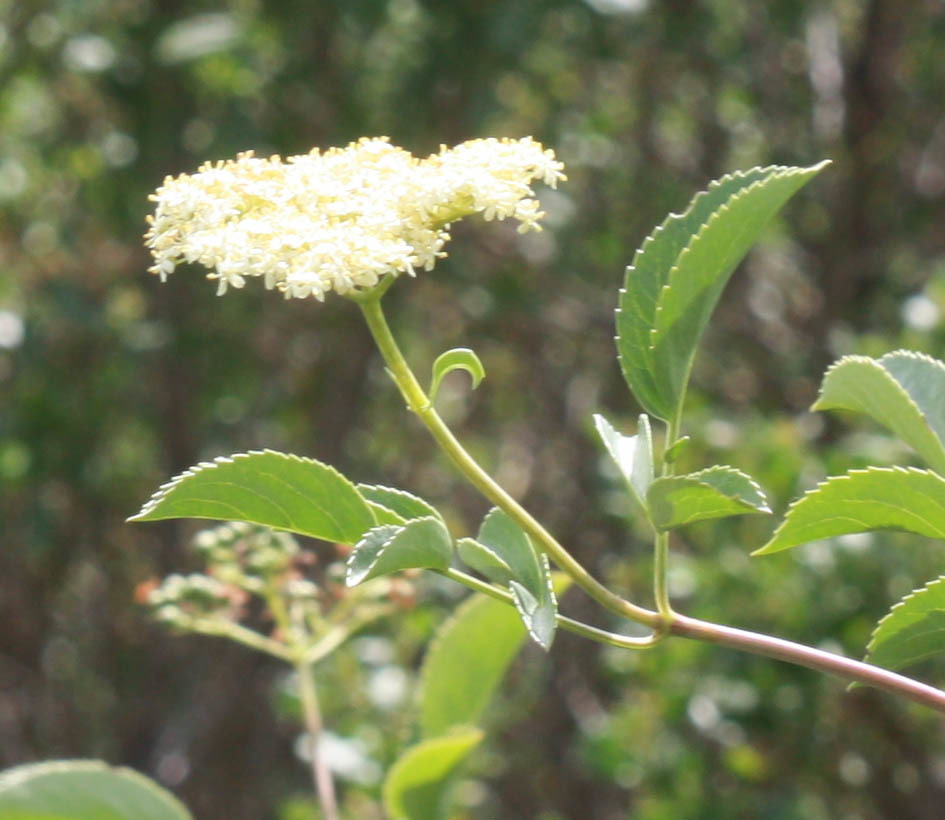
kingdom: Plantae
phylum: Tracheophyta
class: Magnoliopsida
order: Dipsacales
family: Viburnaceae
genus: Sambucus
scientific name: Sambucus cerulea
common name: Blue elder
